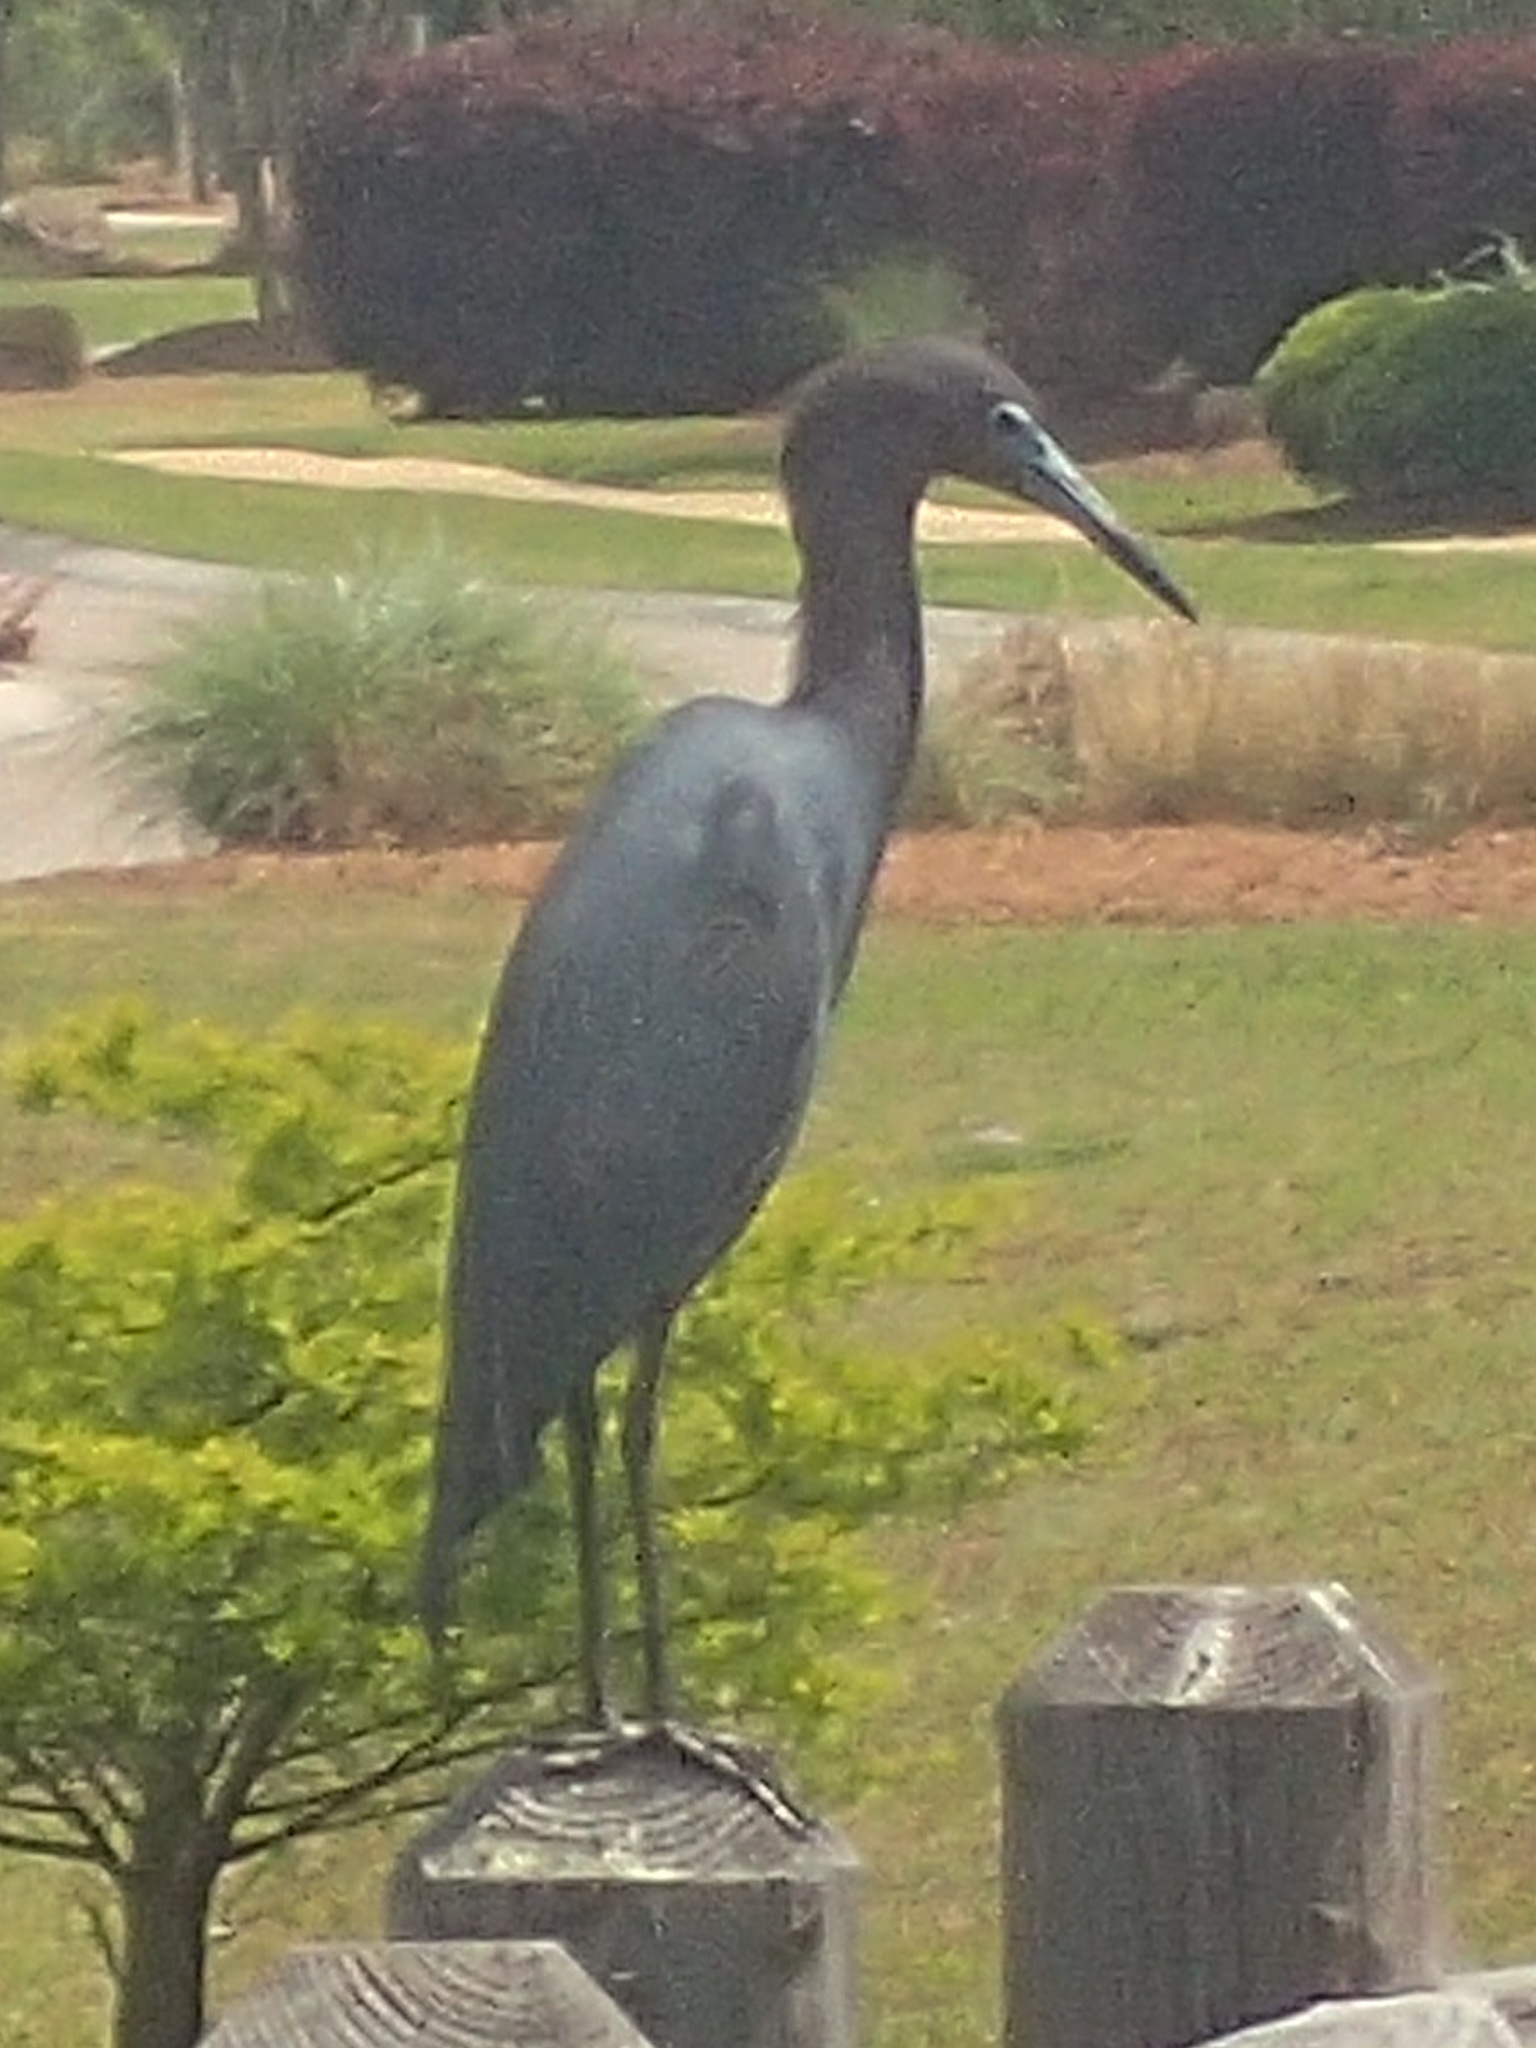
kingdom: Animalia
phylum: Chordata
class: Aves
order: Pelecaniformes
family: Ardeidae
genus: Egretta
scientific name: Egretta caerulea
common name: Little blue heron
